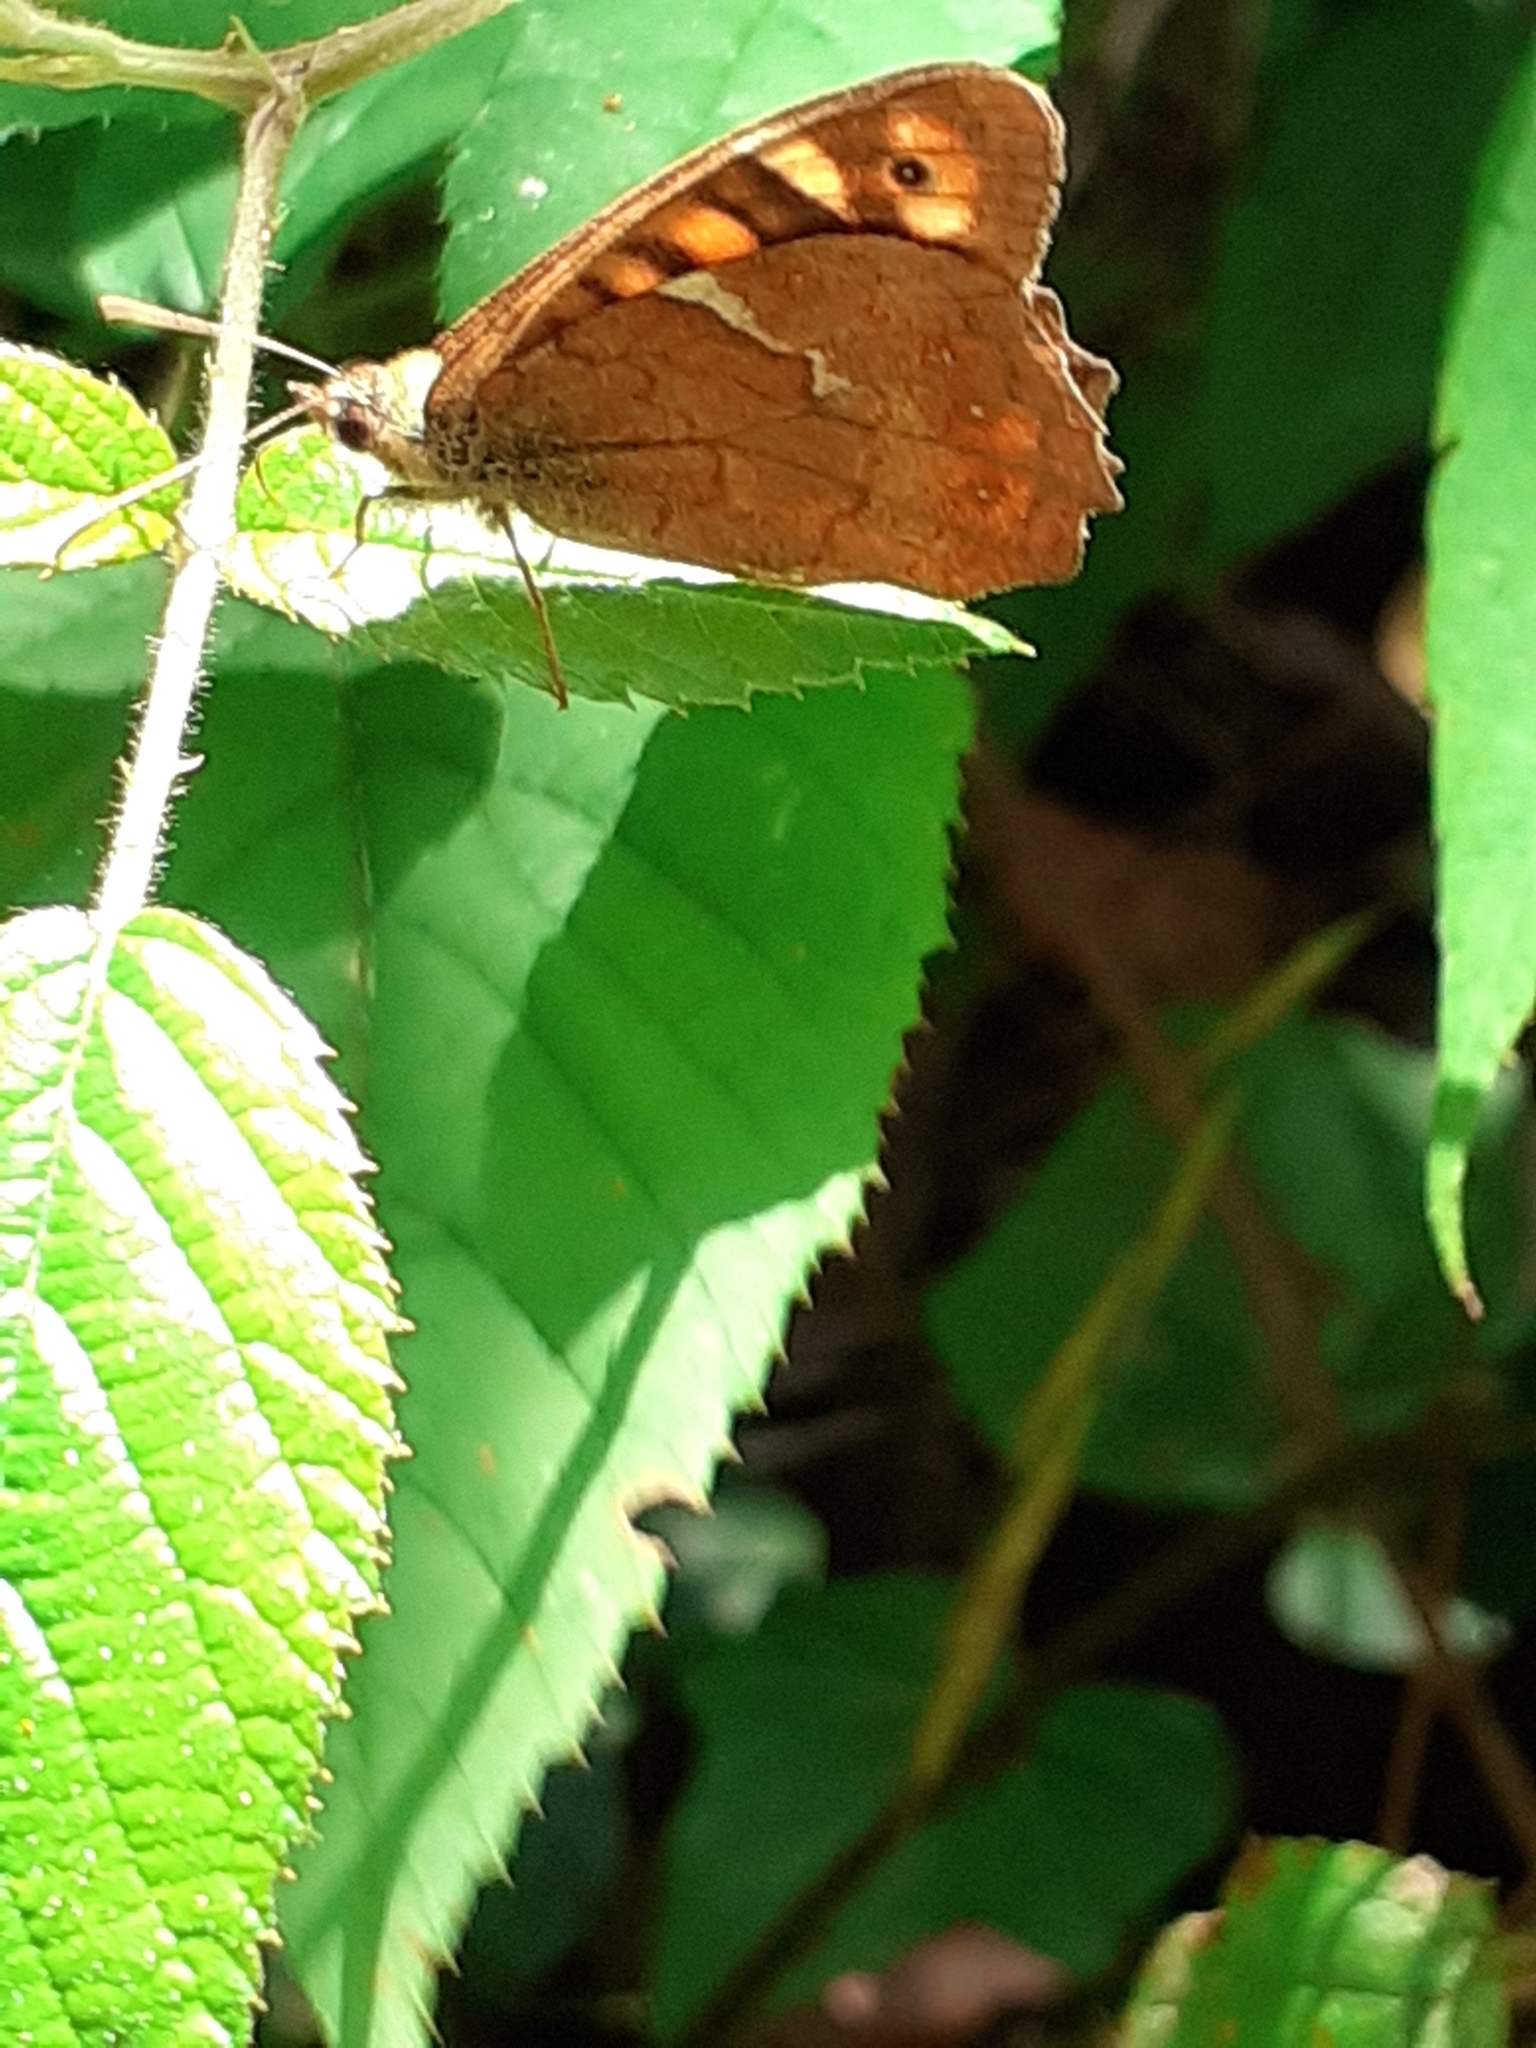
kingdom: Animalia
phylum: Arthropoda
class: Insecta
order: Lepidoptera
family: Nymphalidae
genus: Pararge
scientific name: Pararge aegeria
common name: Speckled wood
